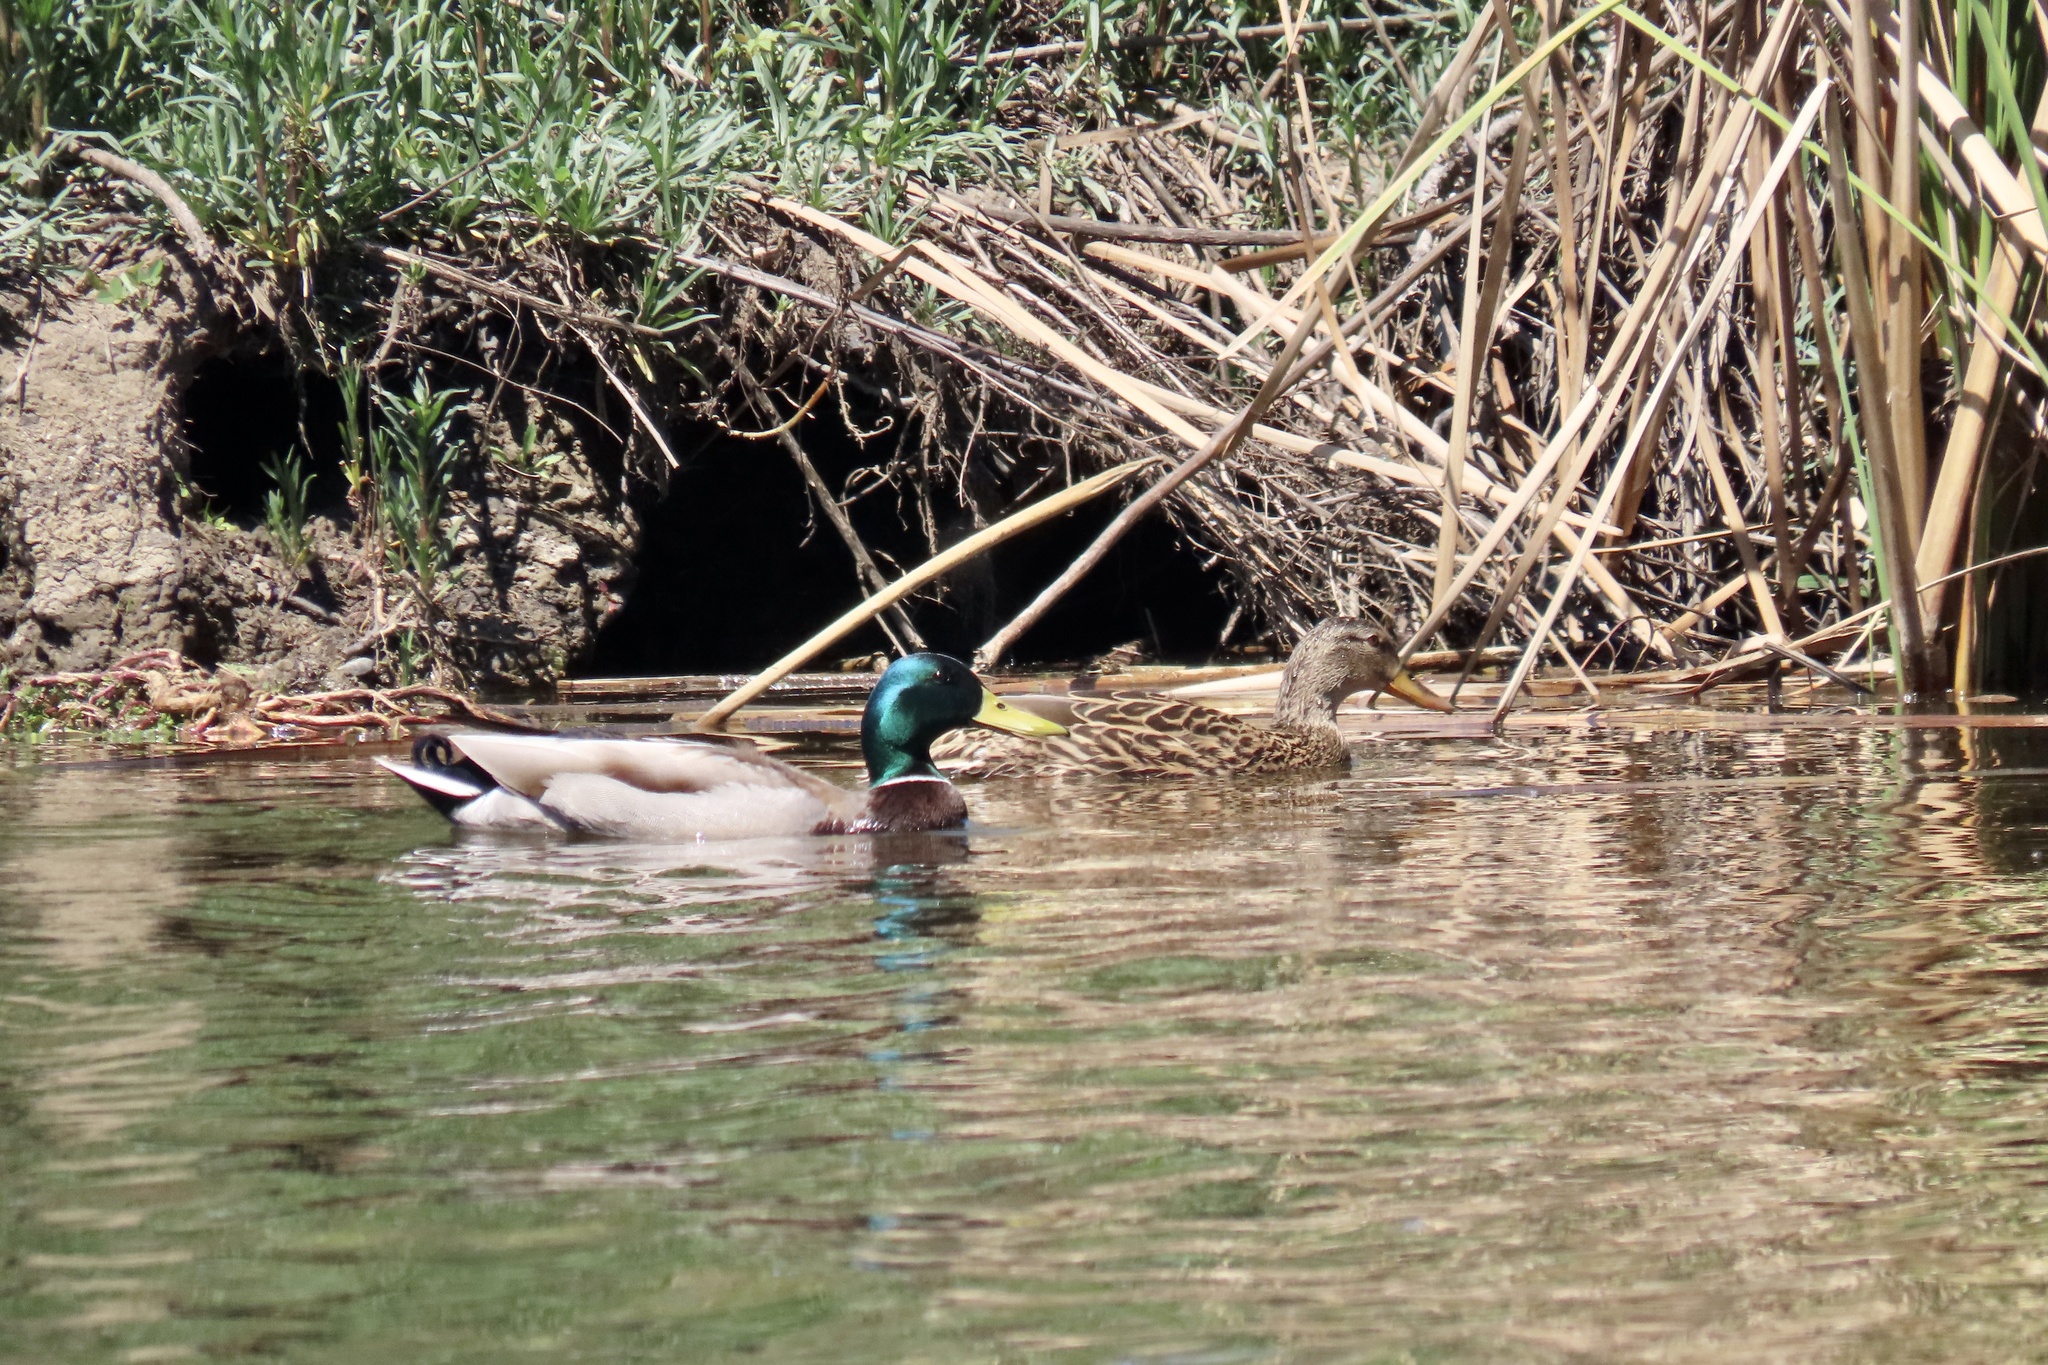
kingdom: Animalia
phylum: Chordata
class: Aves
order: Anseriformes
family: Anatidae
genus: Anas
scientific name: Anas platyrhynchos
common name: Mallard
